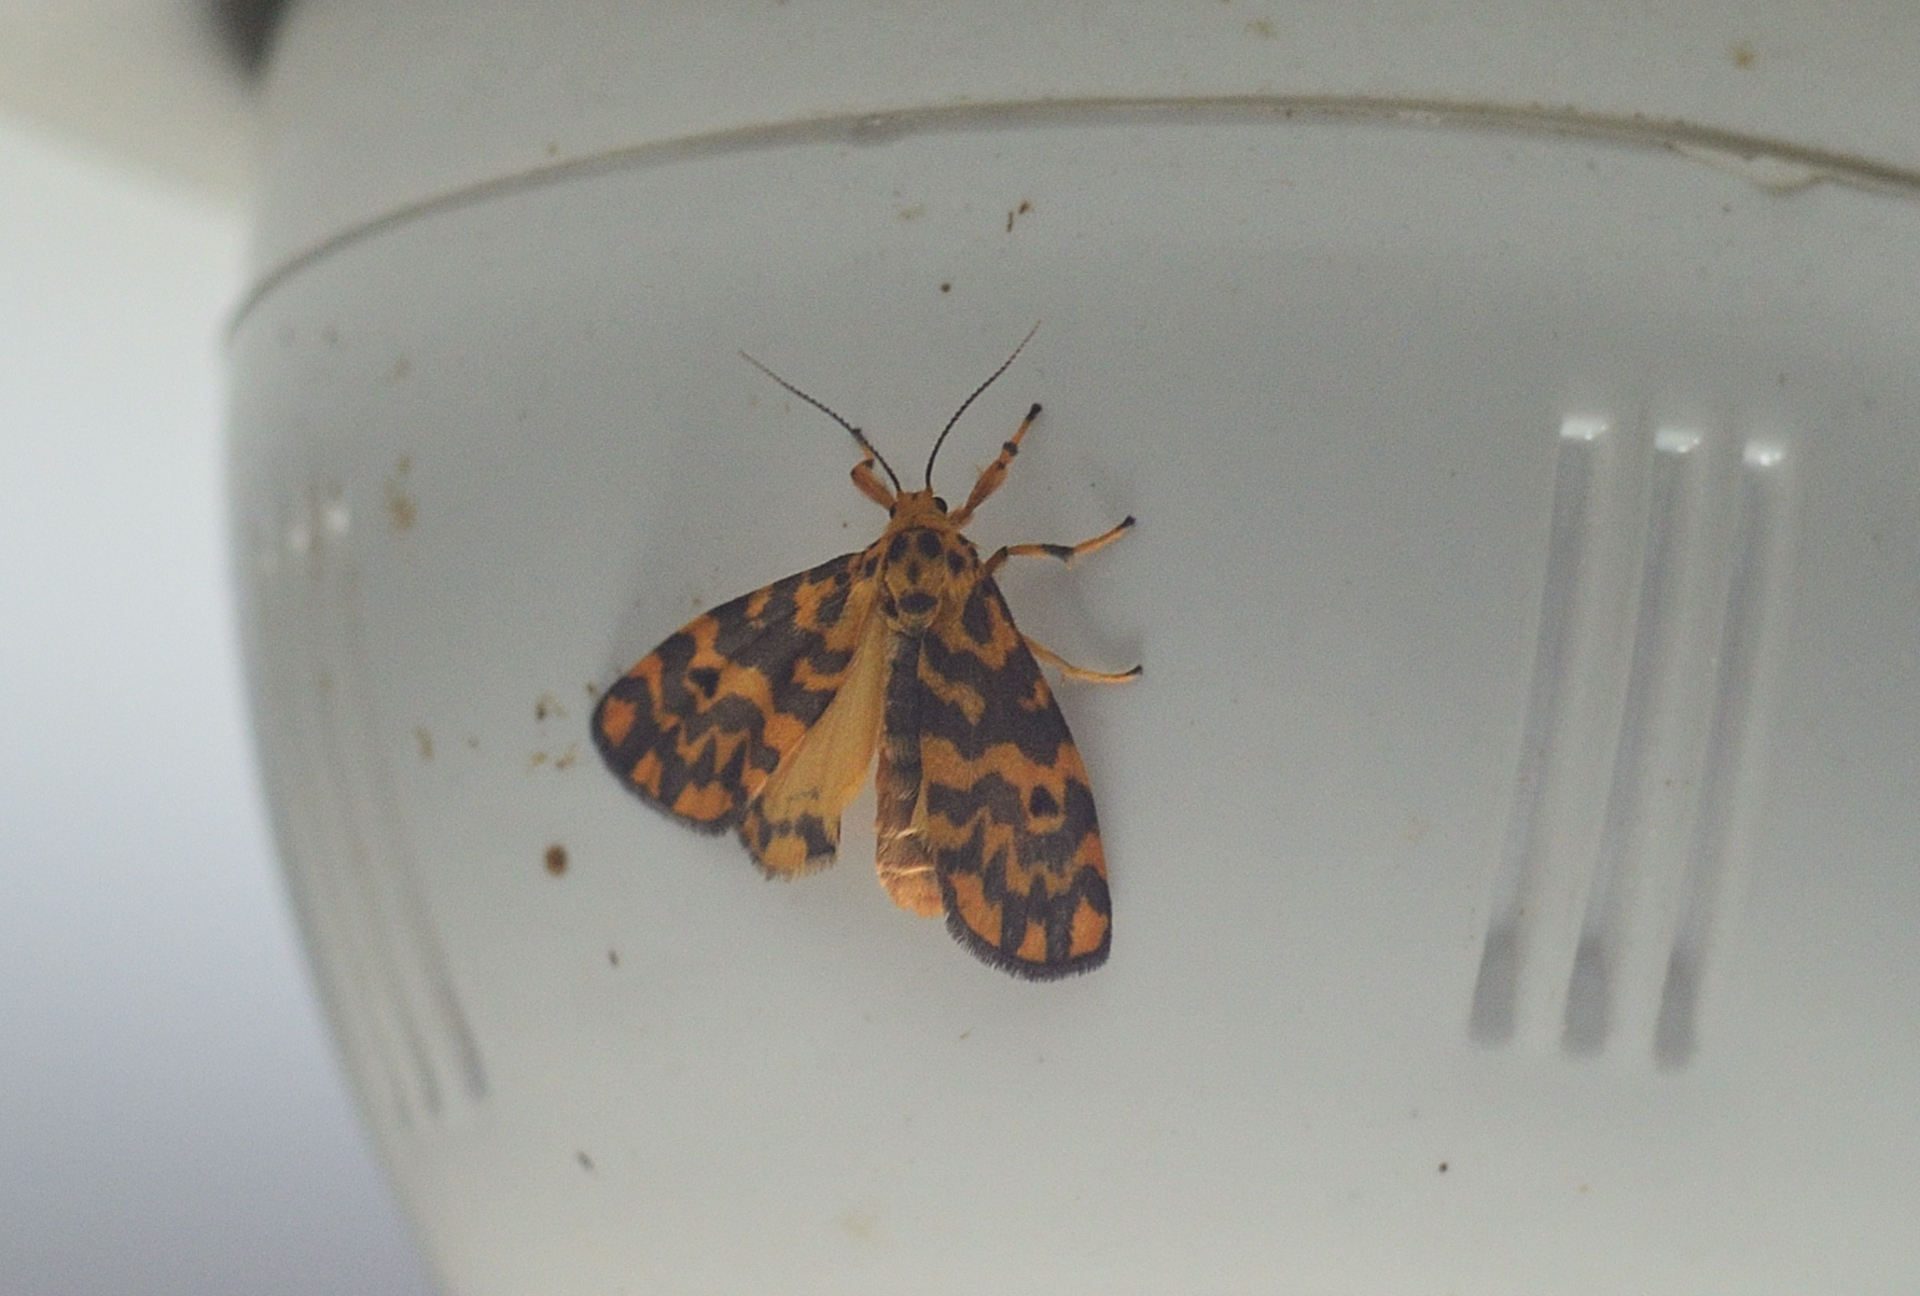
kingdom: Animalia
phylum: Arthropoda
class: Insecta
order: Lepidoptera
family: Erebidae
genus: Nepita
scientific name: Nepita conferta
